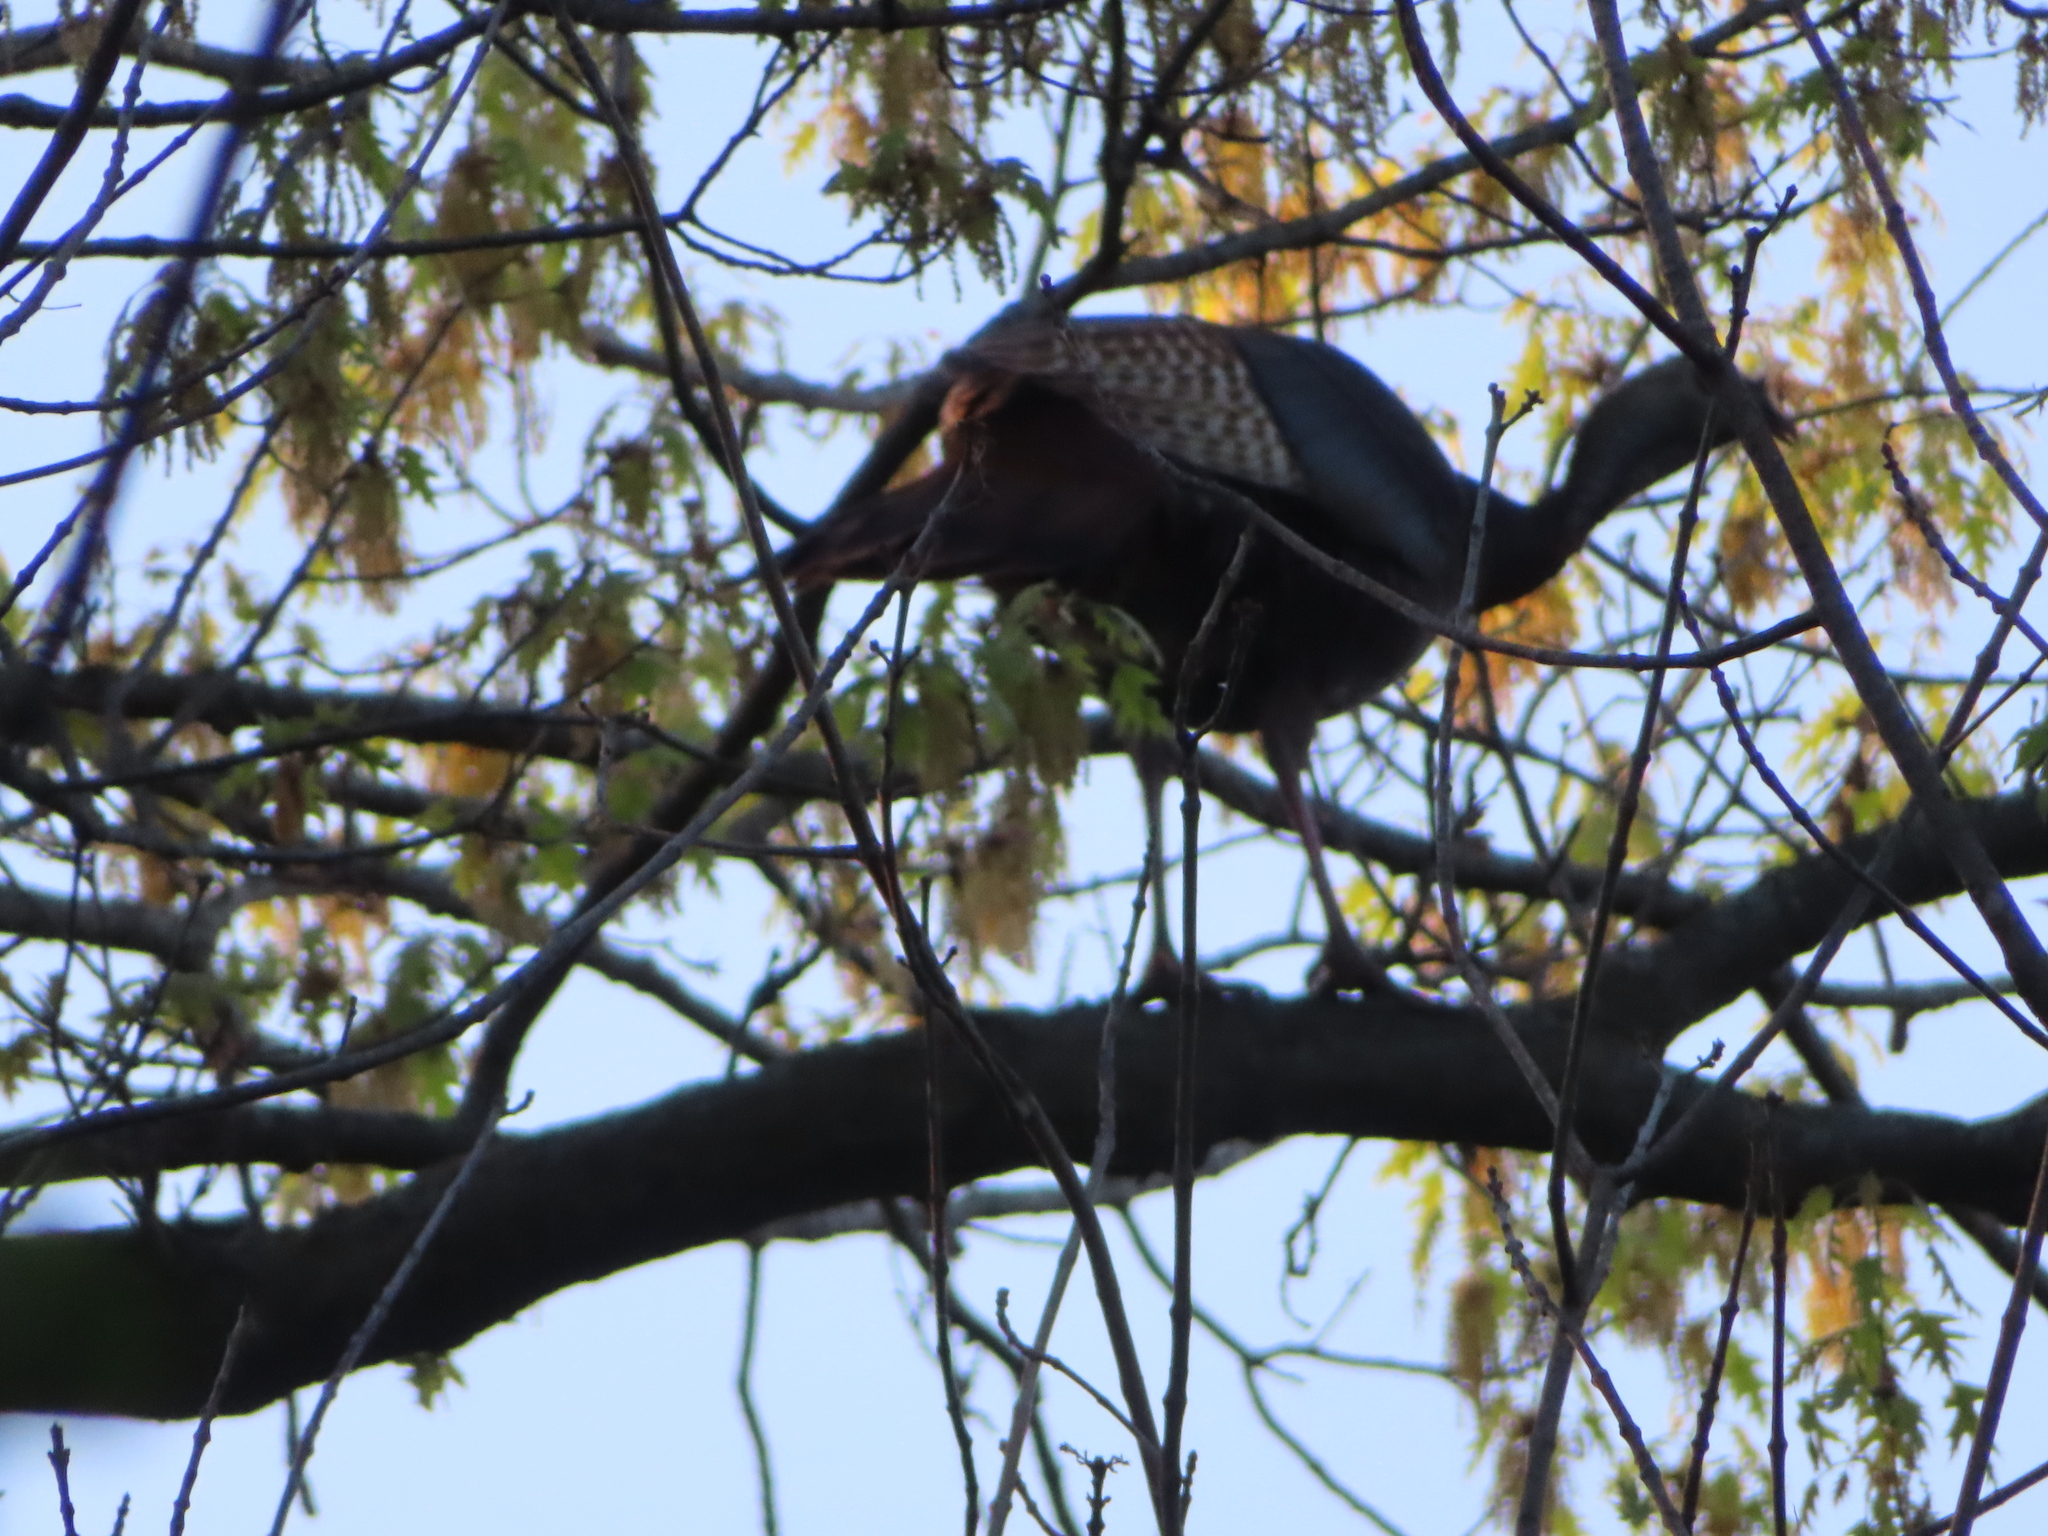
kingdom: Animalia
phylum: Chordata
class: Aves
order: Galliformes
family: Phasianidae
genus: Meleagris
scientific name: Meleagris gallopavo
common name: Wild turkey
